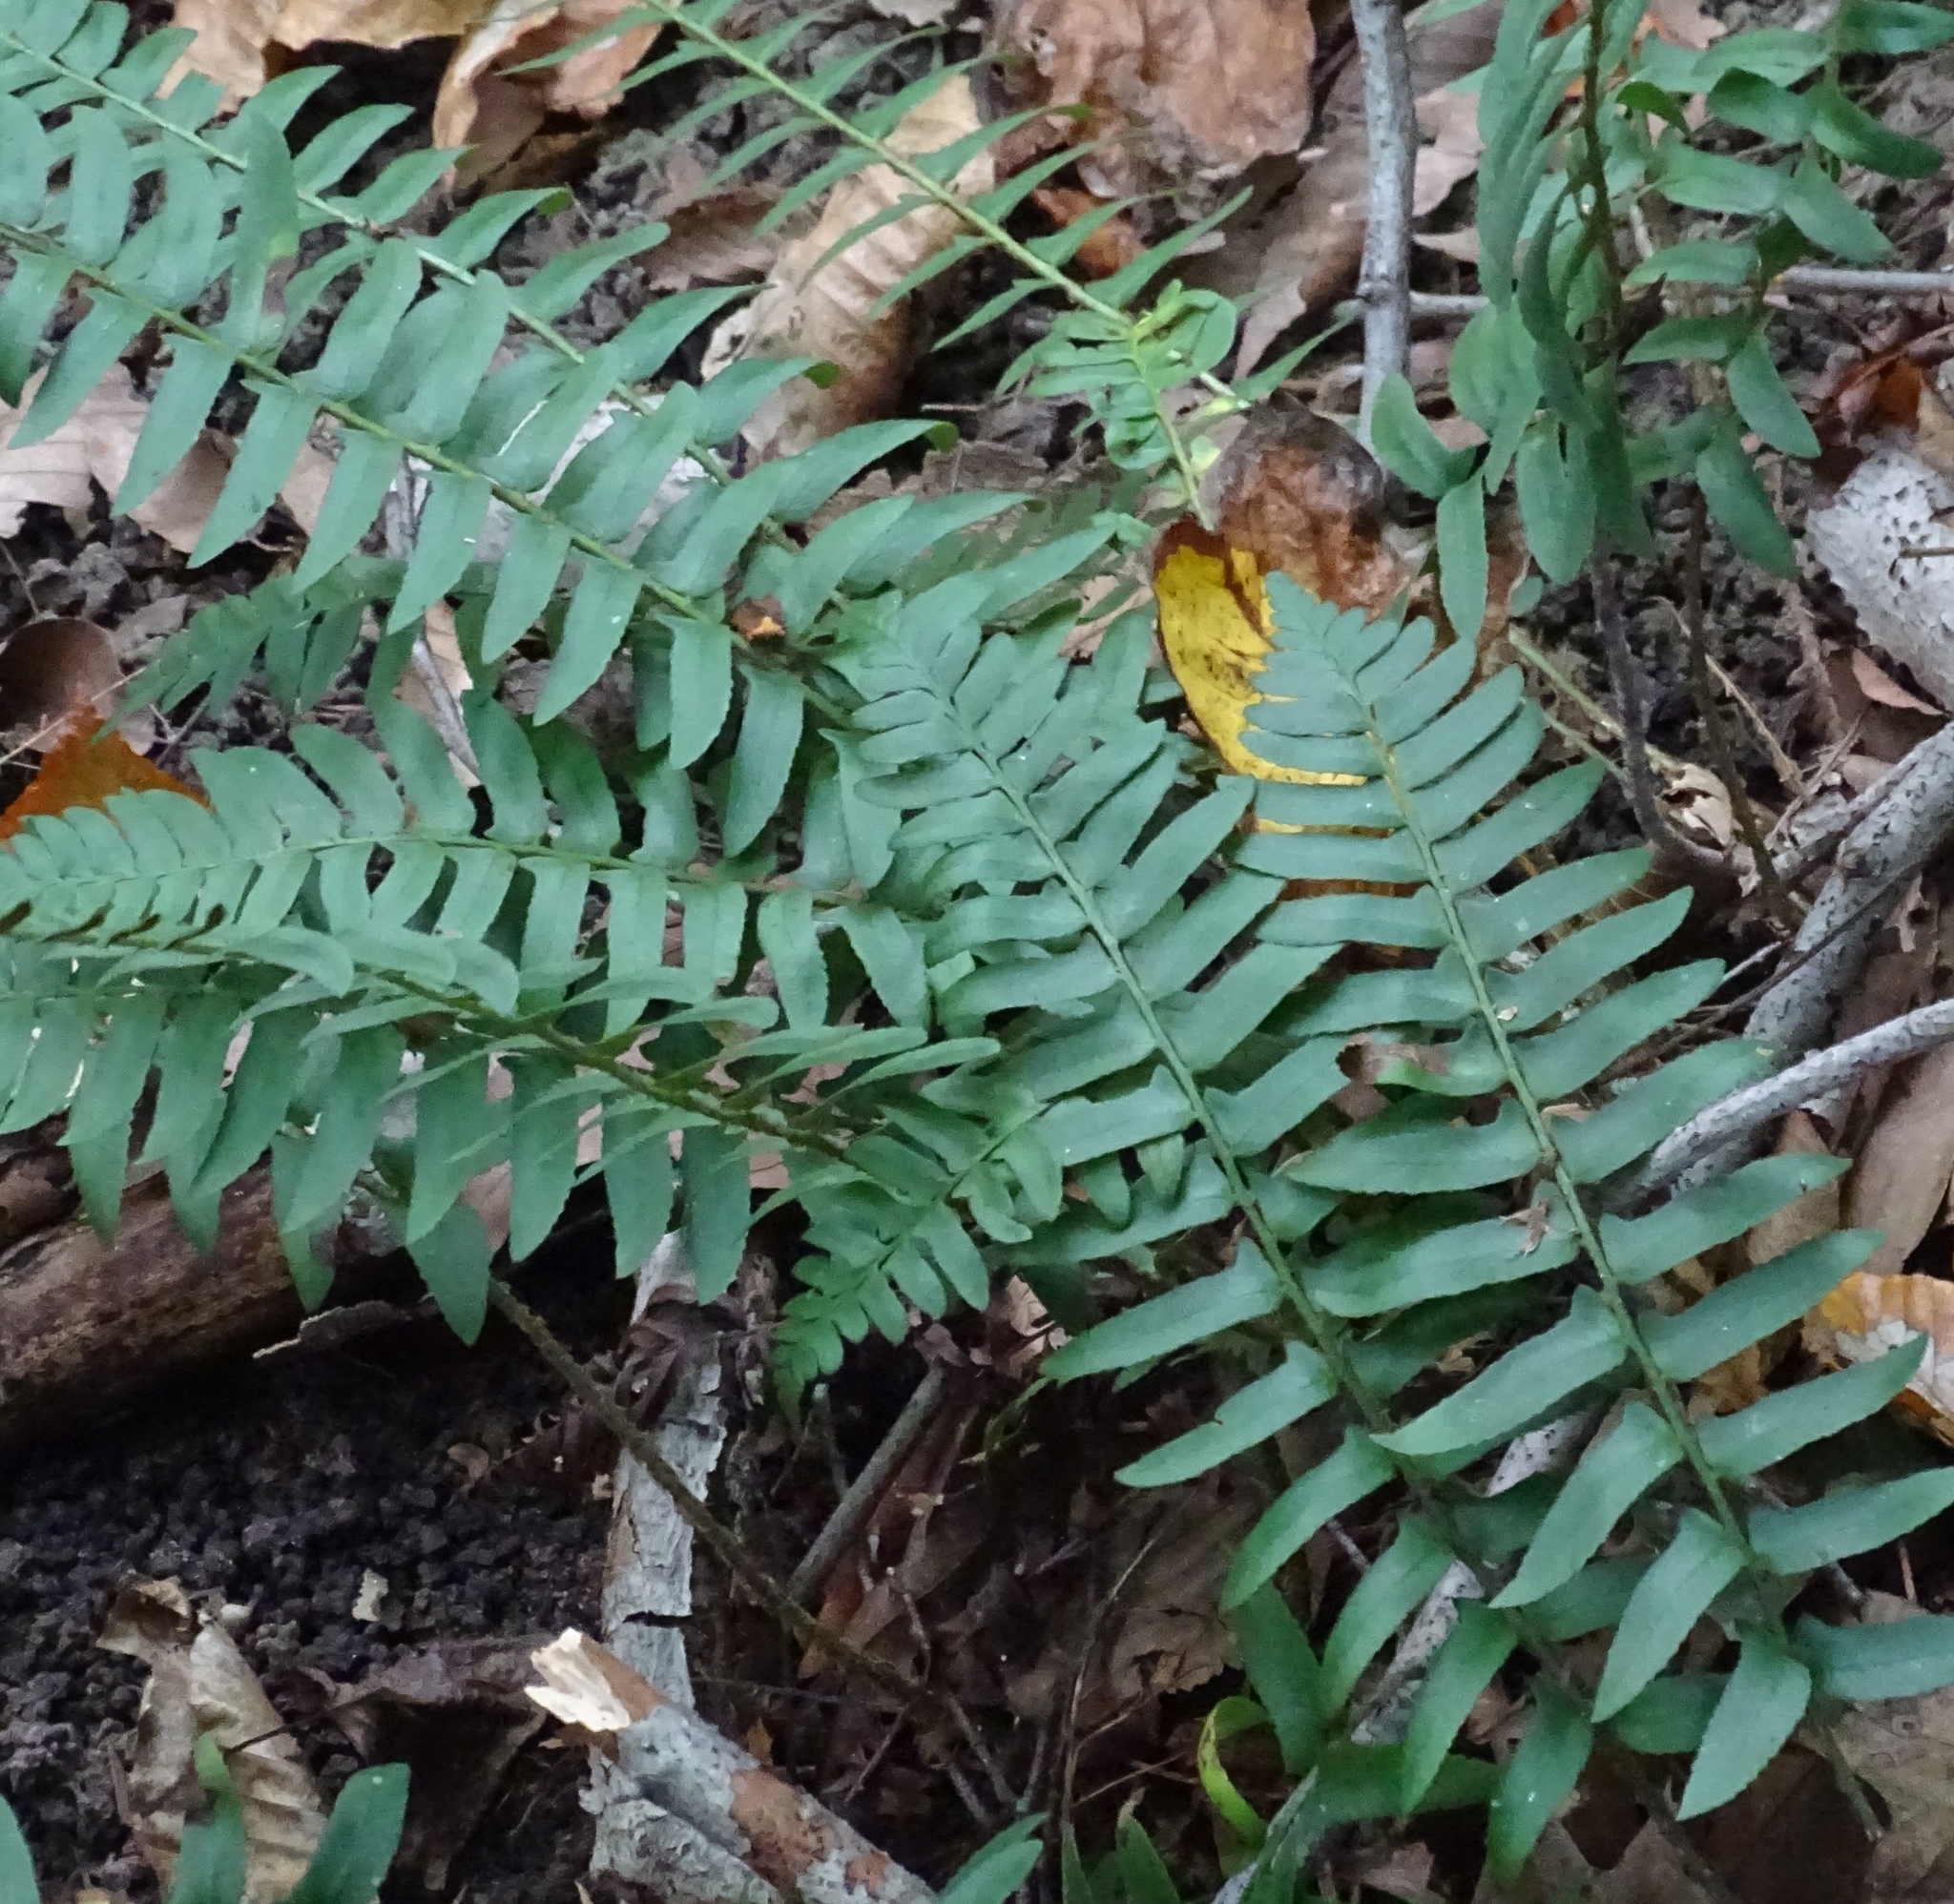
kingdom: Plantae
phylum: Tracheophyta
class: Polypodiopsida
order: Polypodiales
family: Dryopteridaceae
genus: Polystichum
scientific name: Polystichum acrostichoides
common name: Christmas fern
